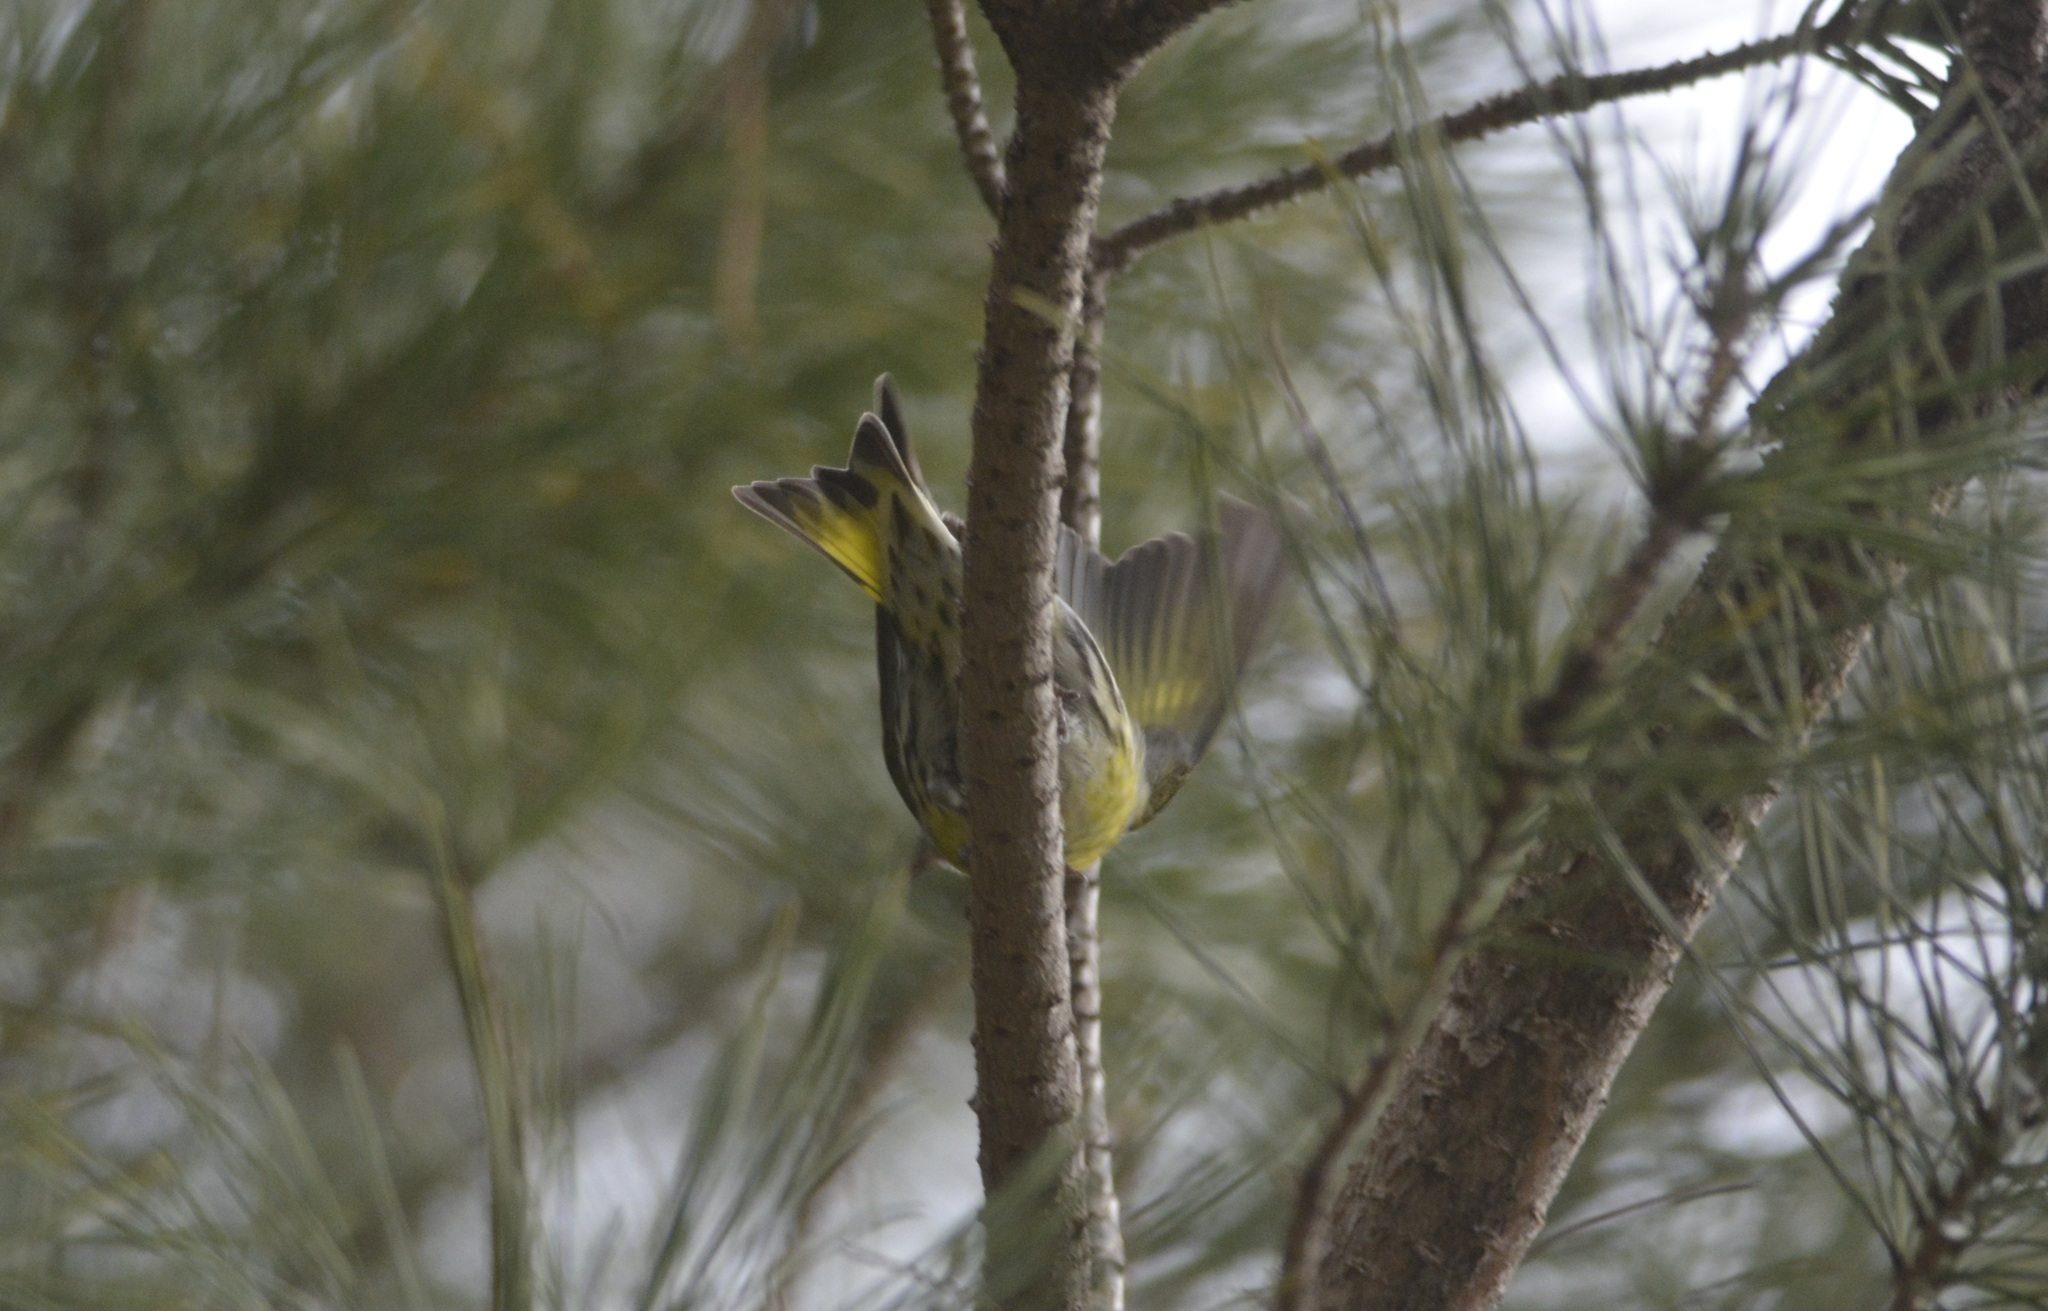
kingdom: Animalia
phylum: Chordata
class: Aves
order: Passeriformes
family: Fringillidae
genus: Spinus
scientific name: Spinus spinus
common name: Eurasian siskin
